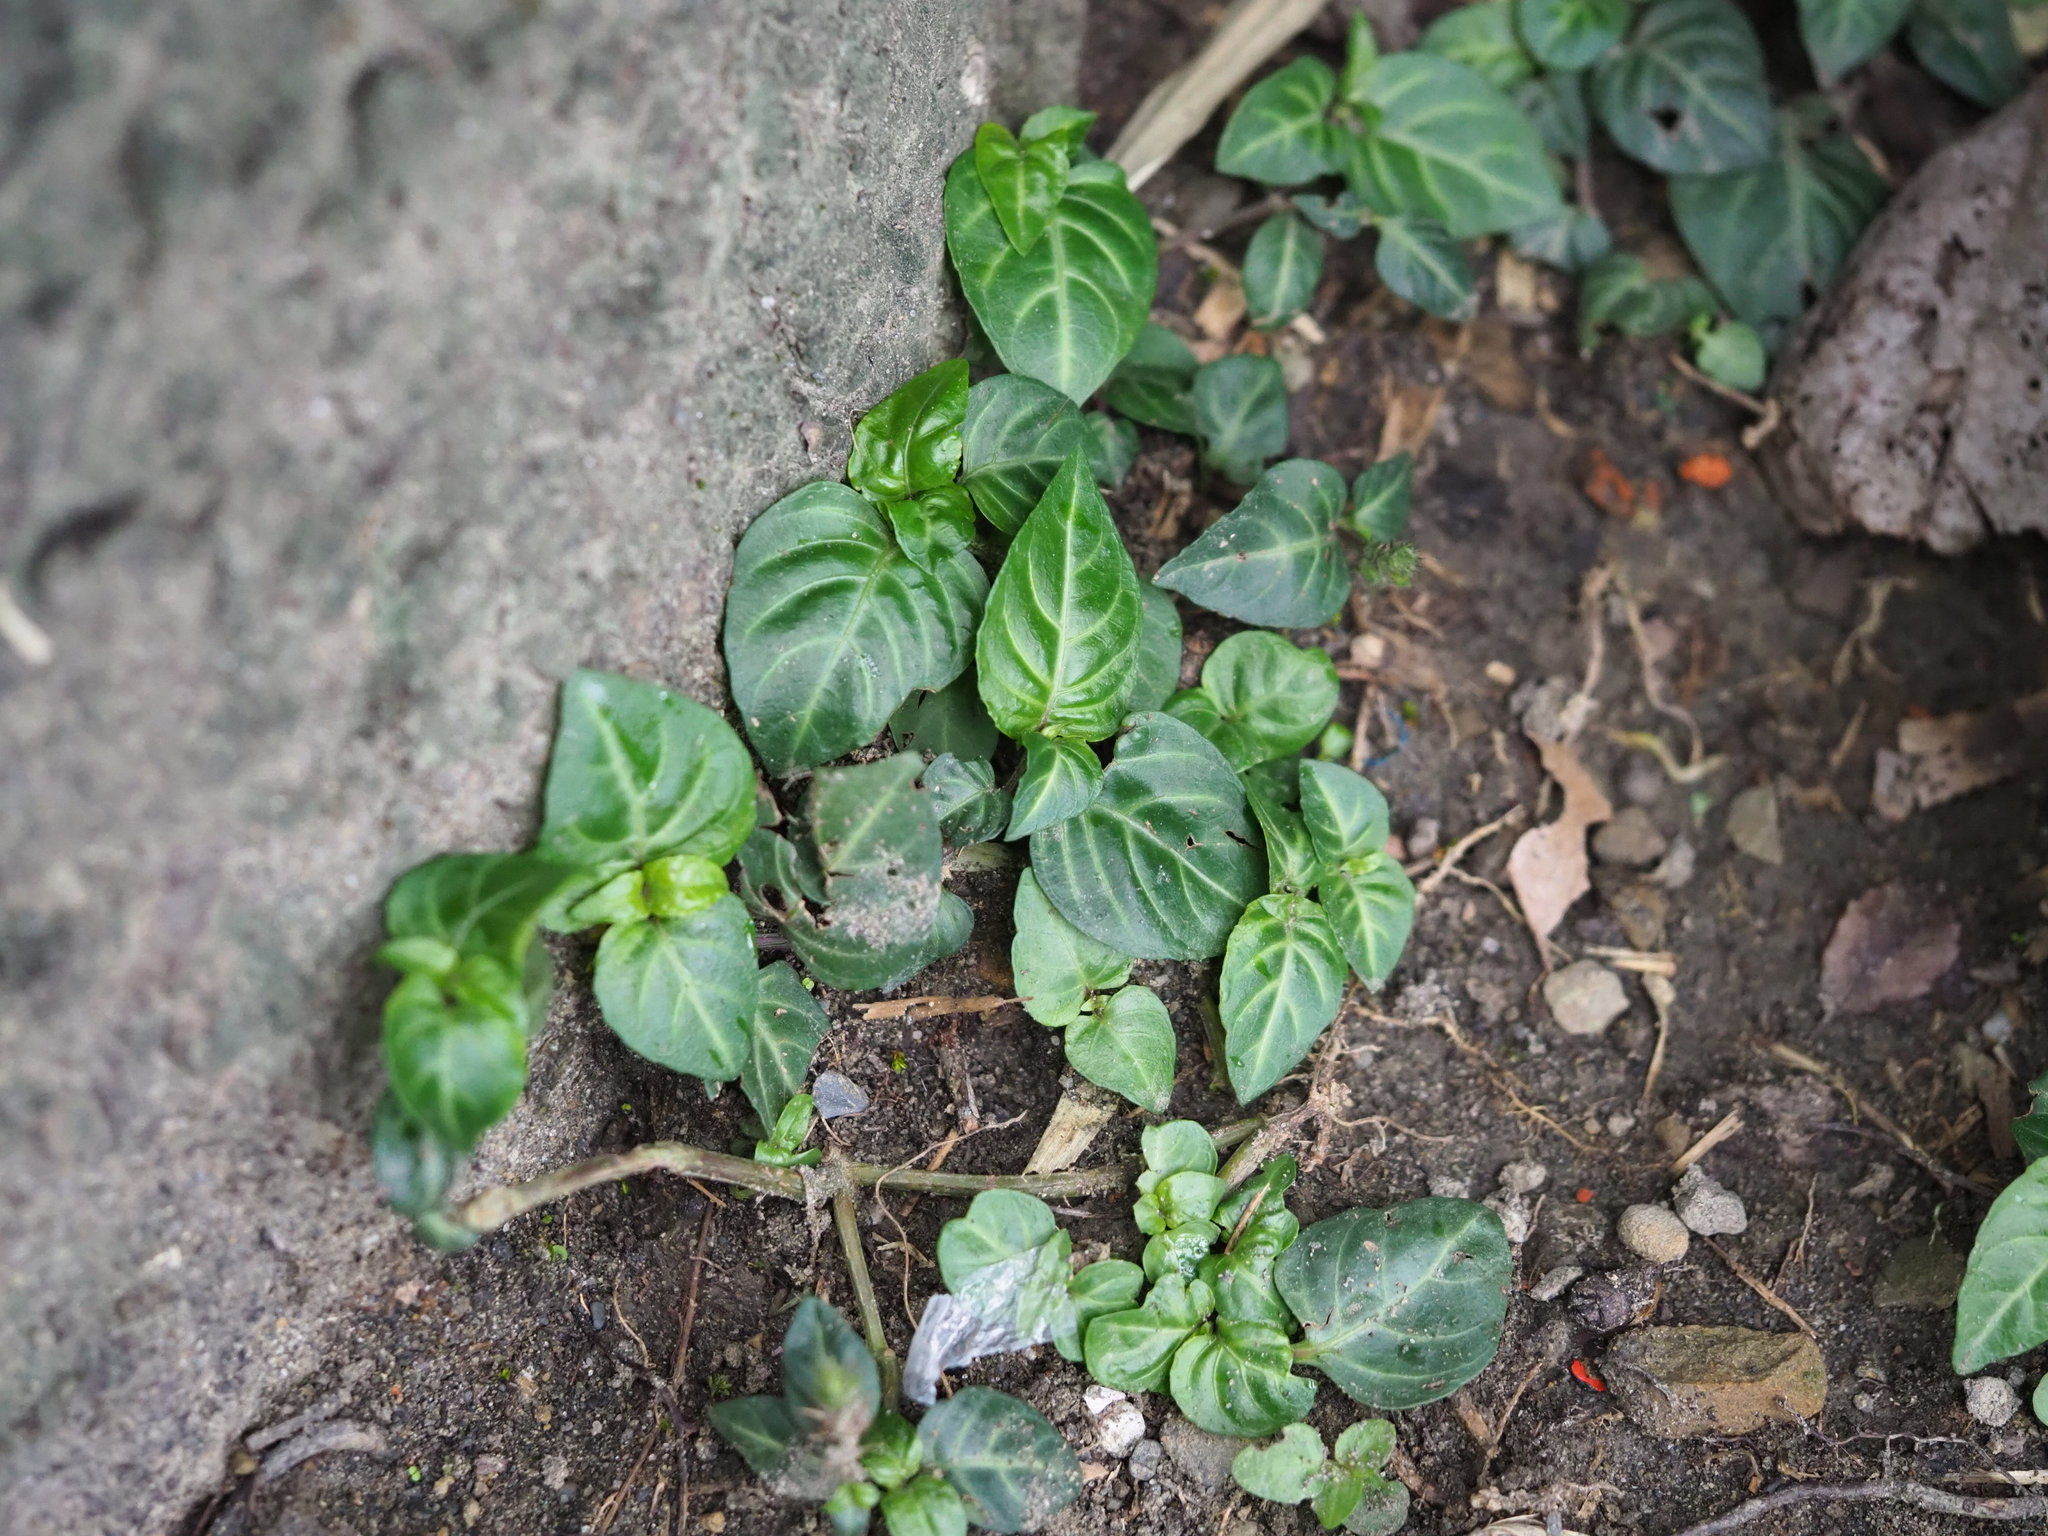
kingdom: Plantae
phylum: Tracheophyta
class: Magnoliopsida
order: Lamiales
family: Acanthaceae
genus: Lepidagathis
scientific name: Lepidagathis inaequalis
